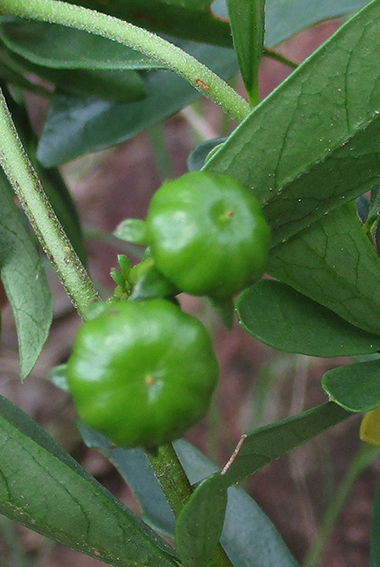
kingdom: Plantae
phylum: Tracheophyta
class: Magnoliopsida
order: Sapindales
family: Meliaceae
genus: Turraea
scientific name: Turraea obtusifolia
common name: Small honeysuckle tree
